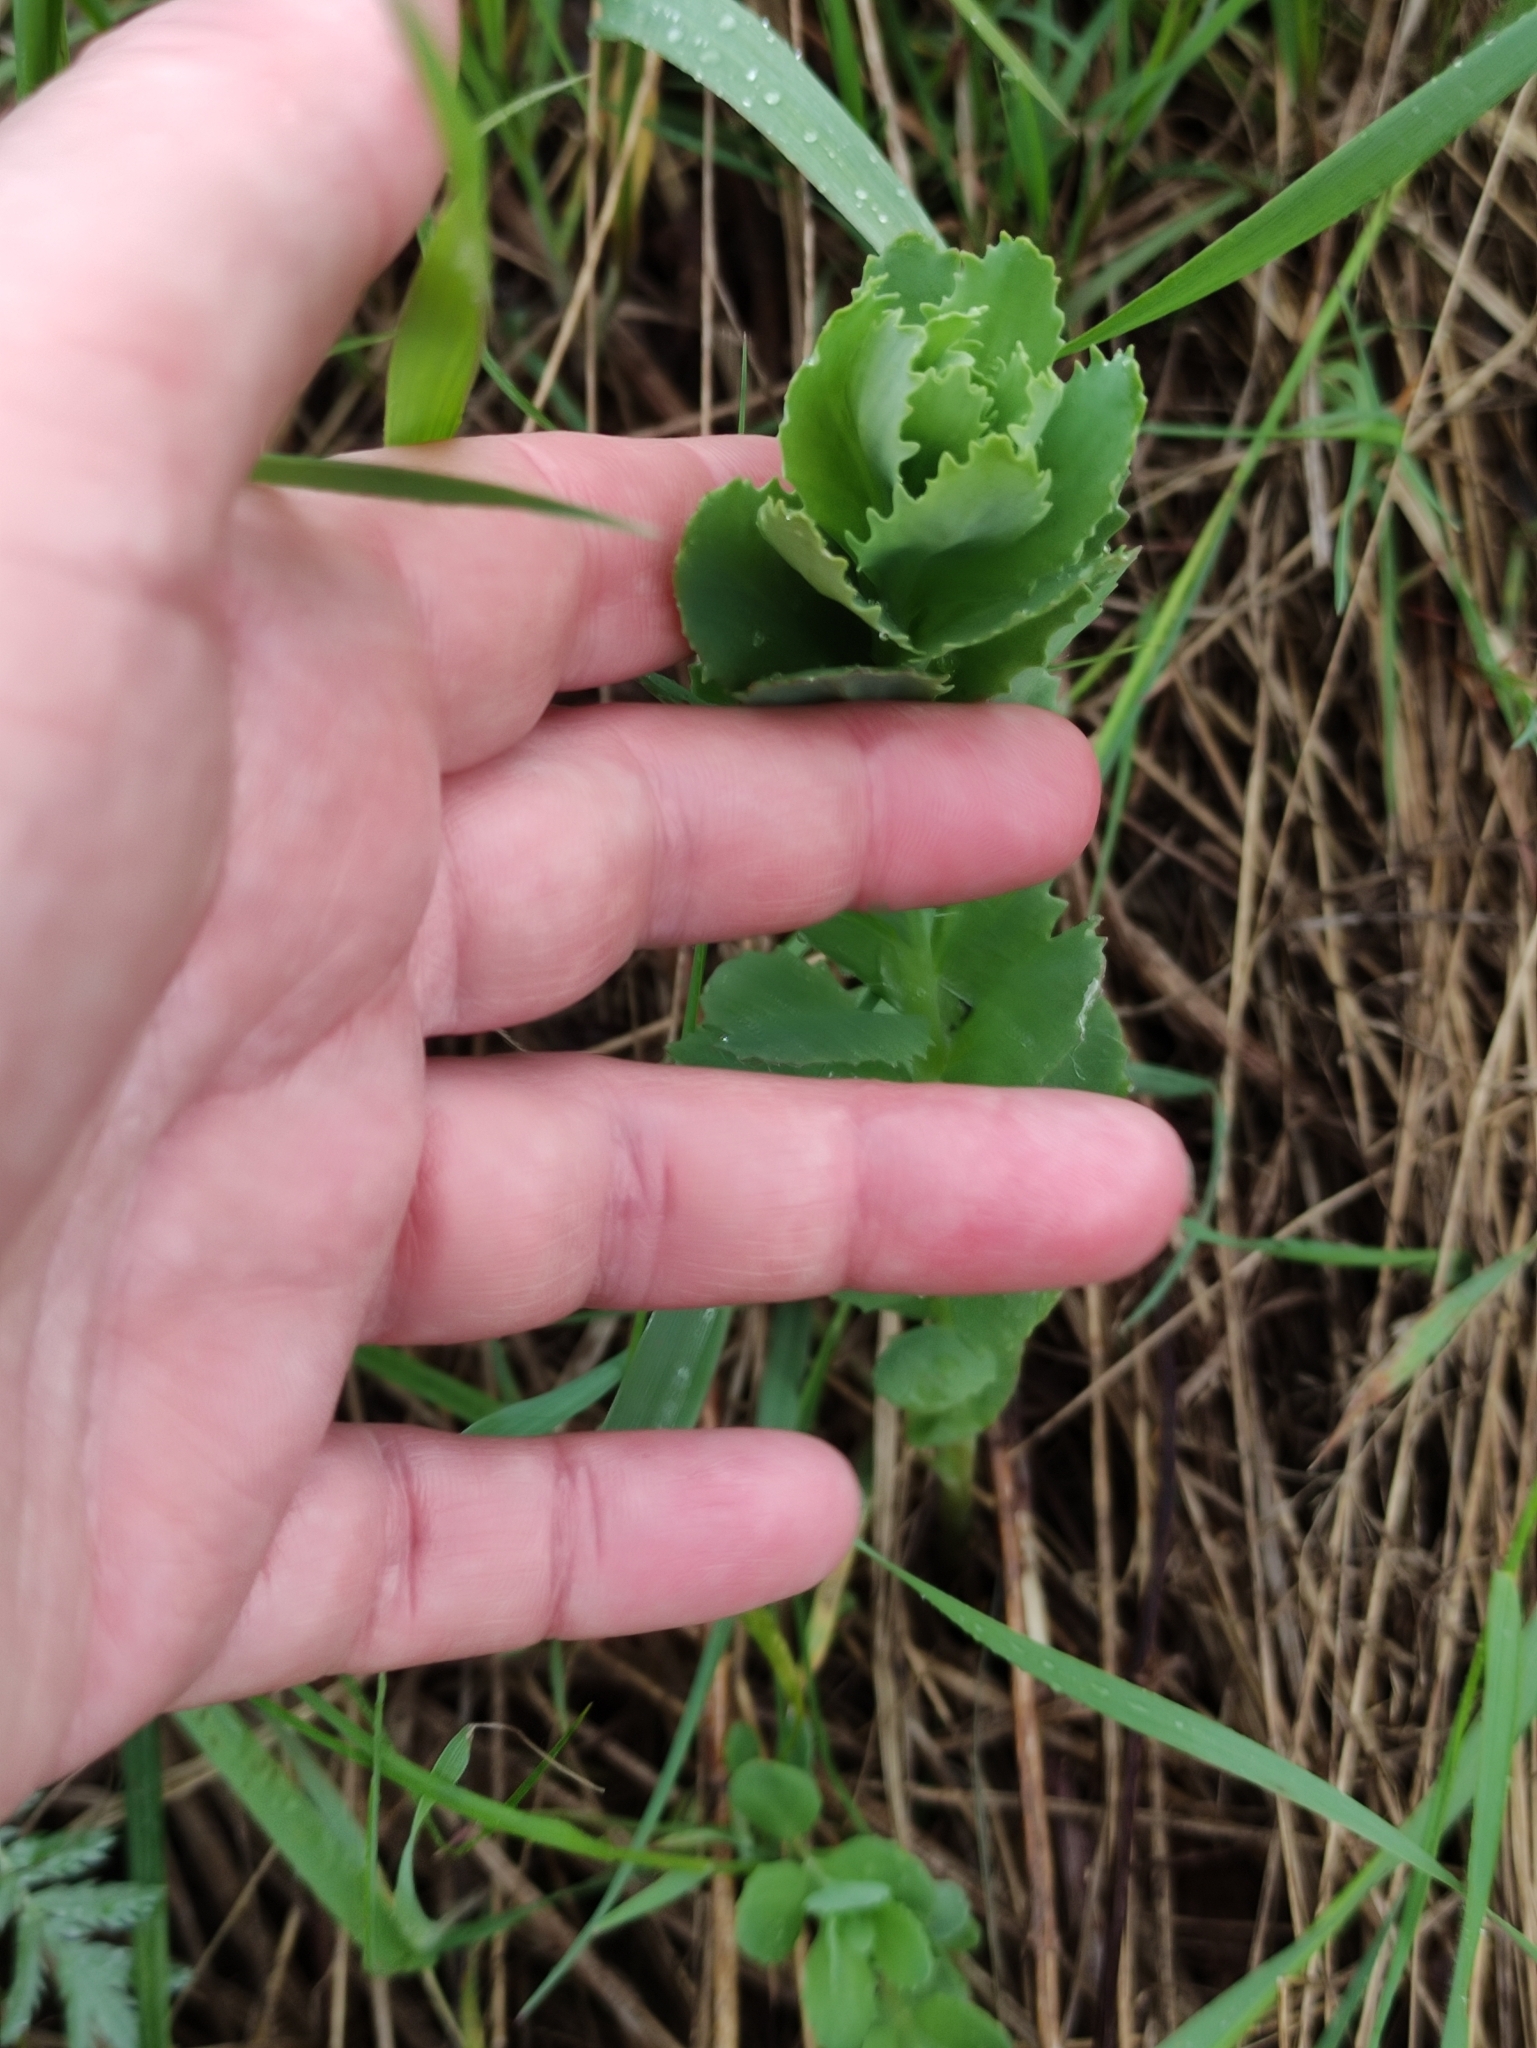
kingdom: Plantae
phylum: Tracheophyta
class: Magnoliopsida
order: Saxifragales
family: Crassulaceae
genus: Hylotelephium
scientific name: Hylotelephium telephium
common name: Live-forever
